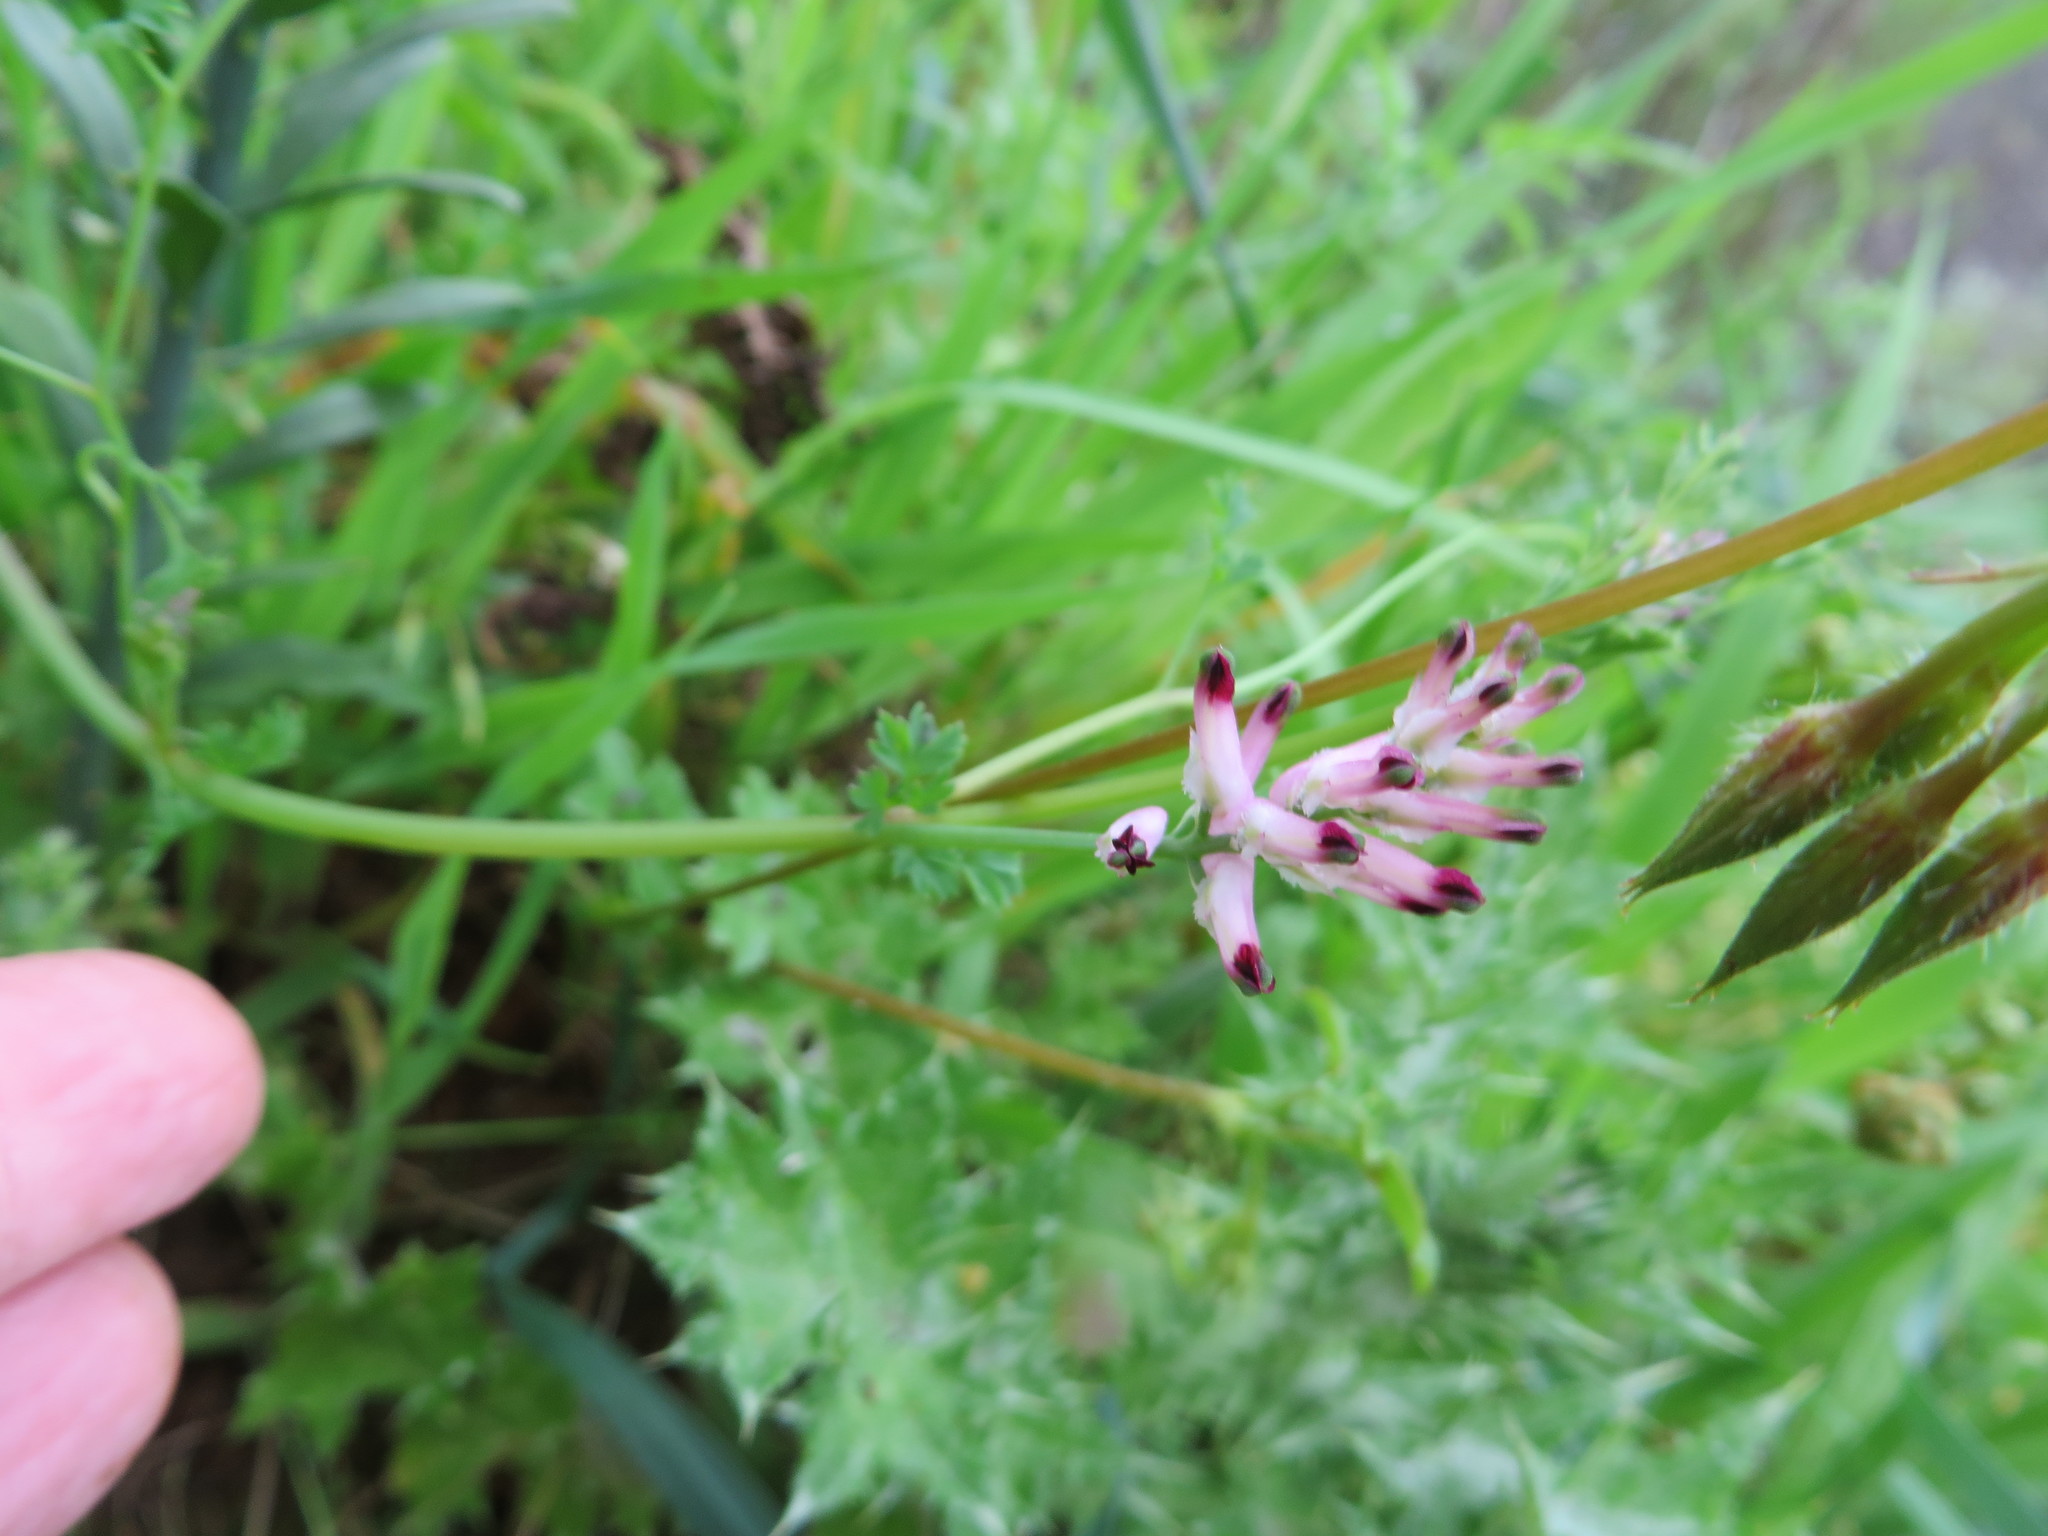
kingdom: Plantae
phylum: Tracheophyta
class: Magnoliopsida
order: Ranunculales
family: Papaveraceae
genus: Fumaria
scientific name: Fumaria muralis
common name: Common ramping-fumitory
